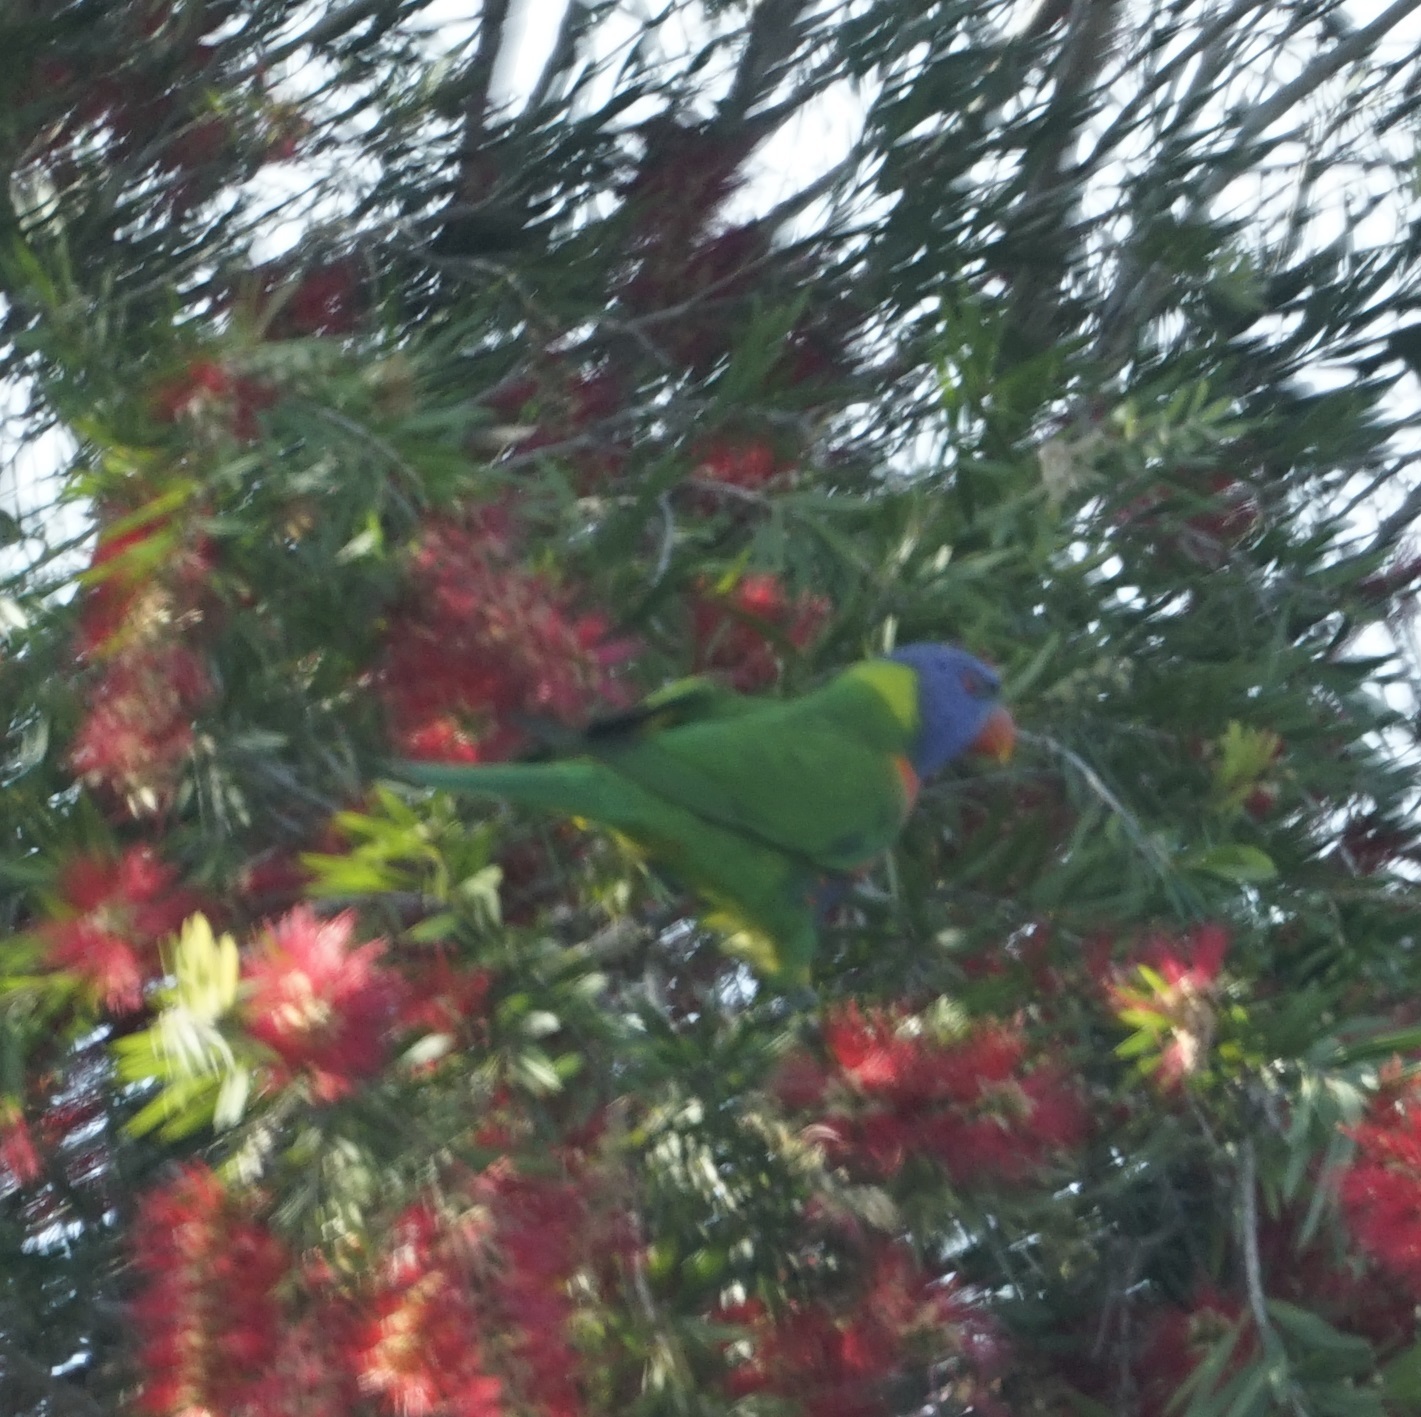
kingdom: Animalia
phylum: Chordata
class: Aves
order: Psittaciformes
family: Psittacidae
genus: Trichoglossus
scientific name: Trichoglossus haematodus
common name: Coconut lorikeet
